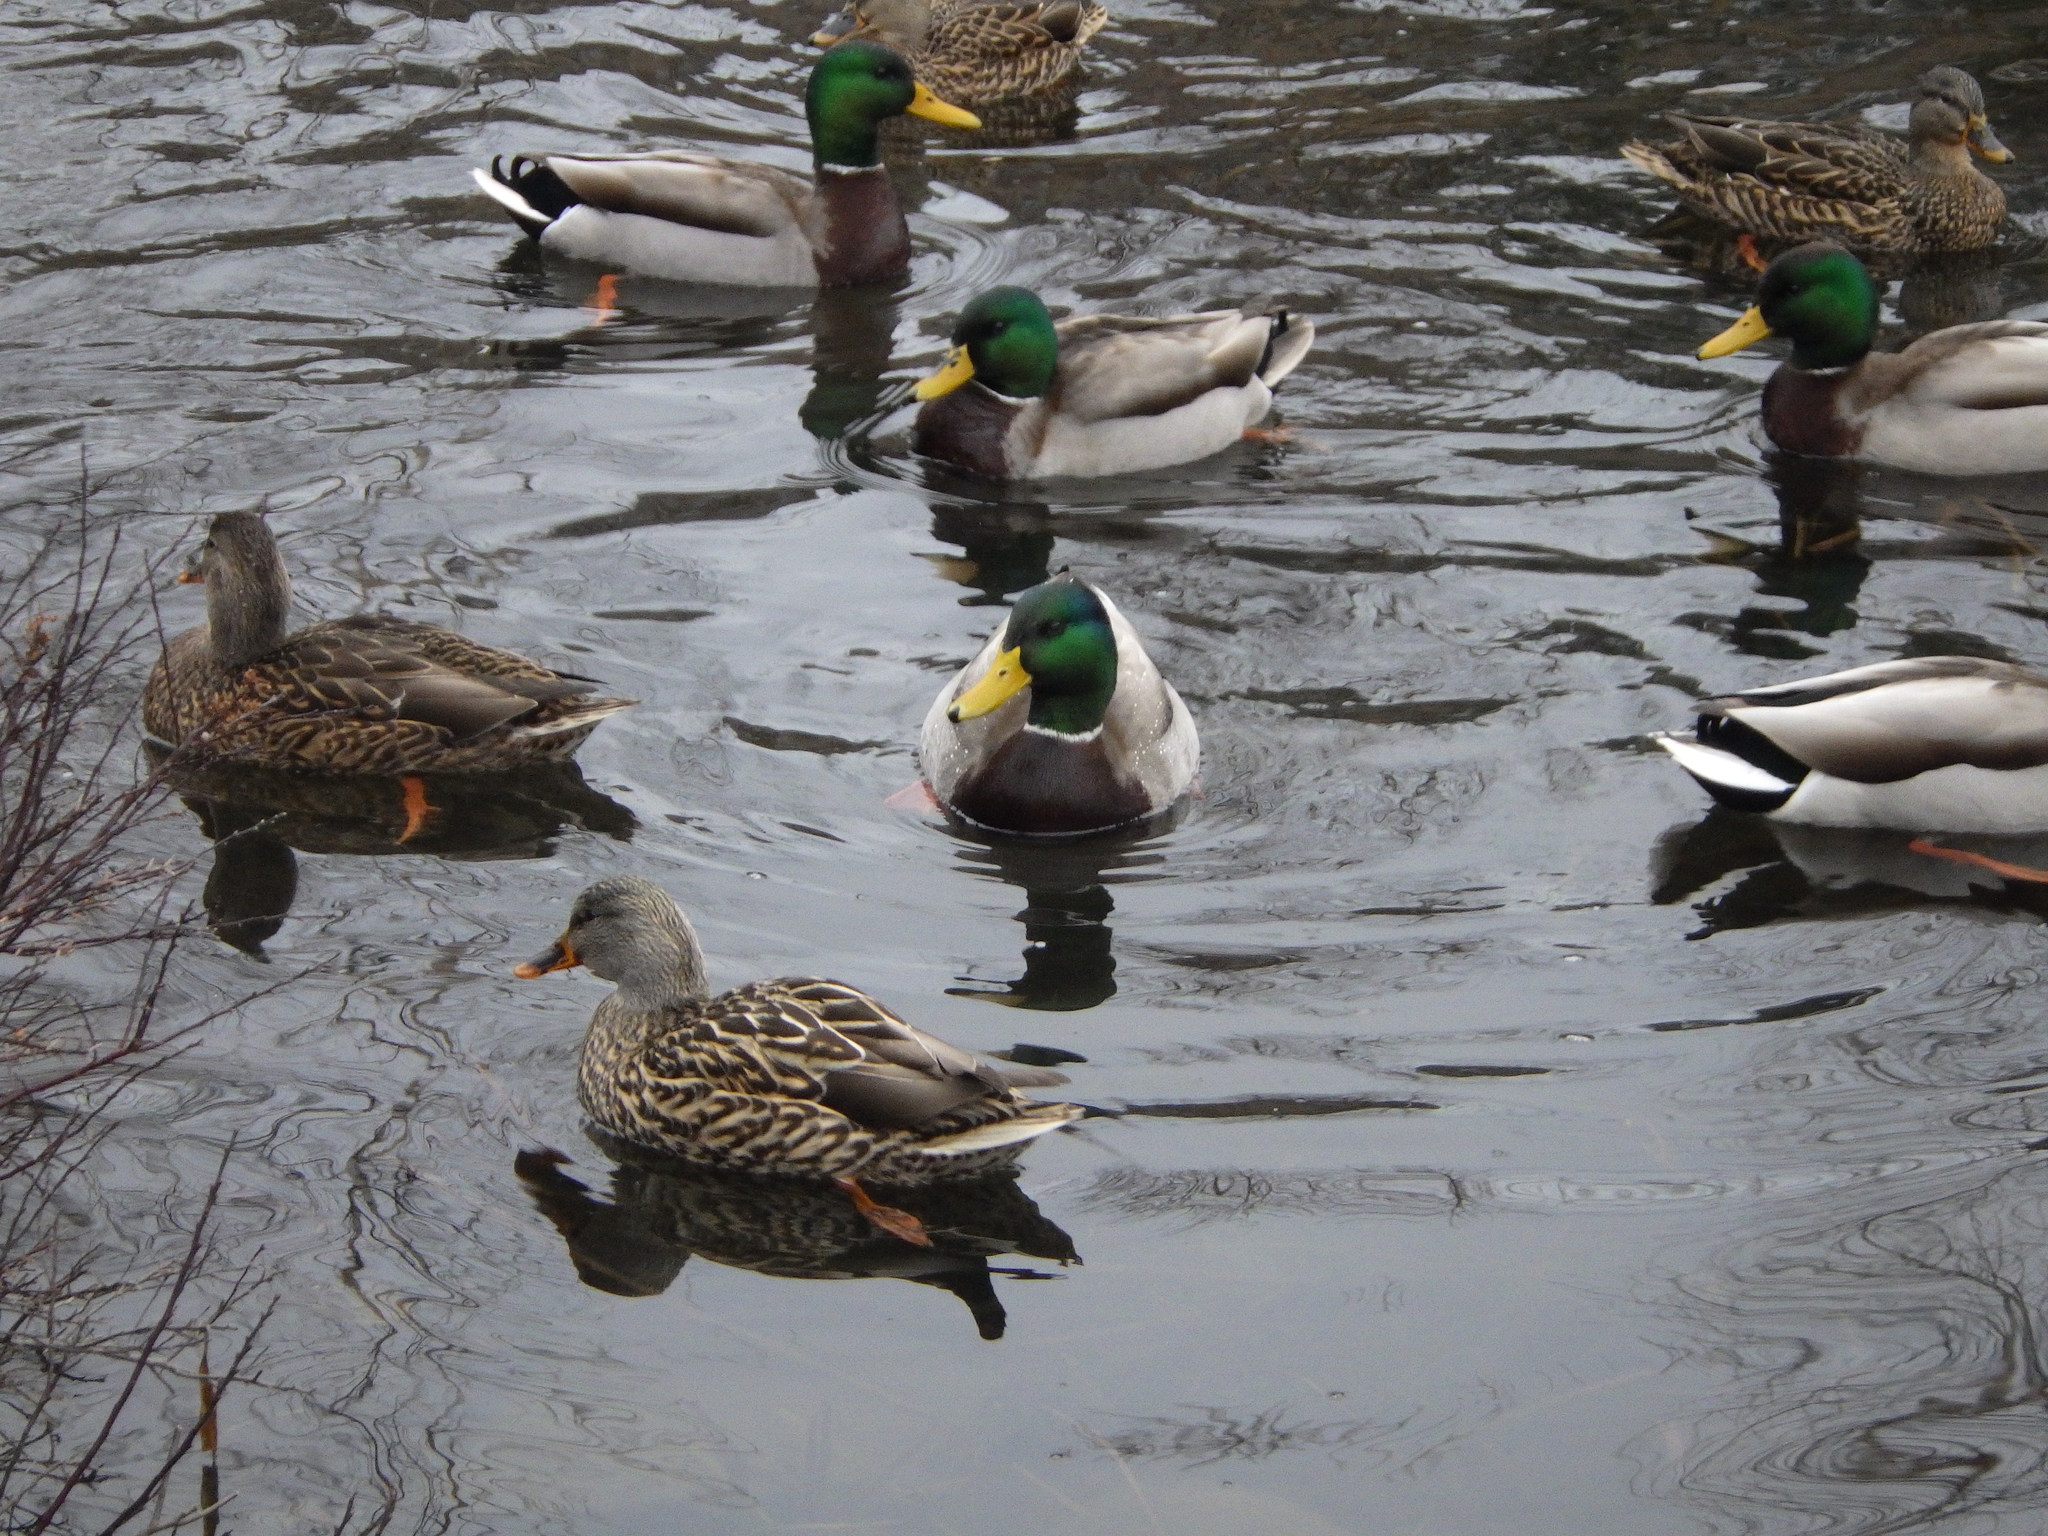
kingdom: Animalia
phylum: Chordata
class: Aves
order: Anseriformes
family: Anatidae
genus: Anas
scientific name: Anas platyrhynchos
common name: Mallard
